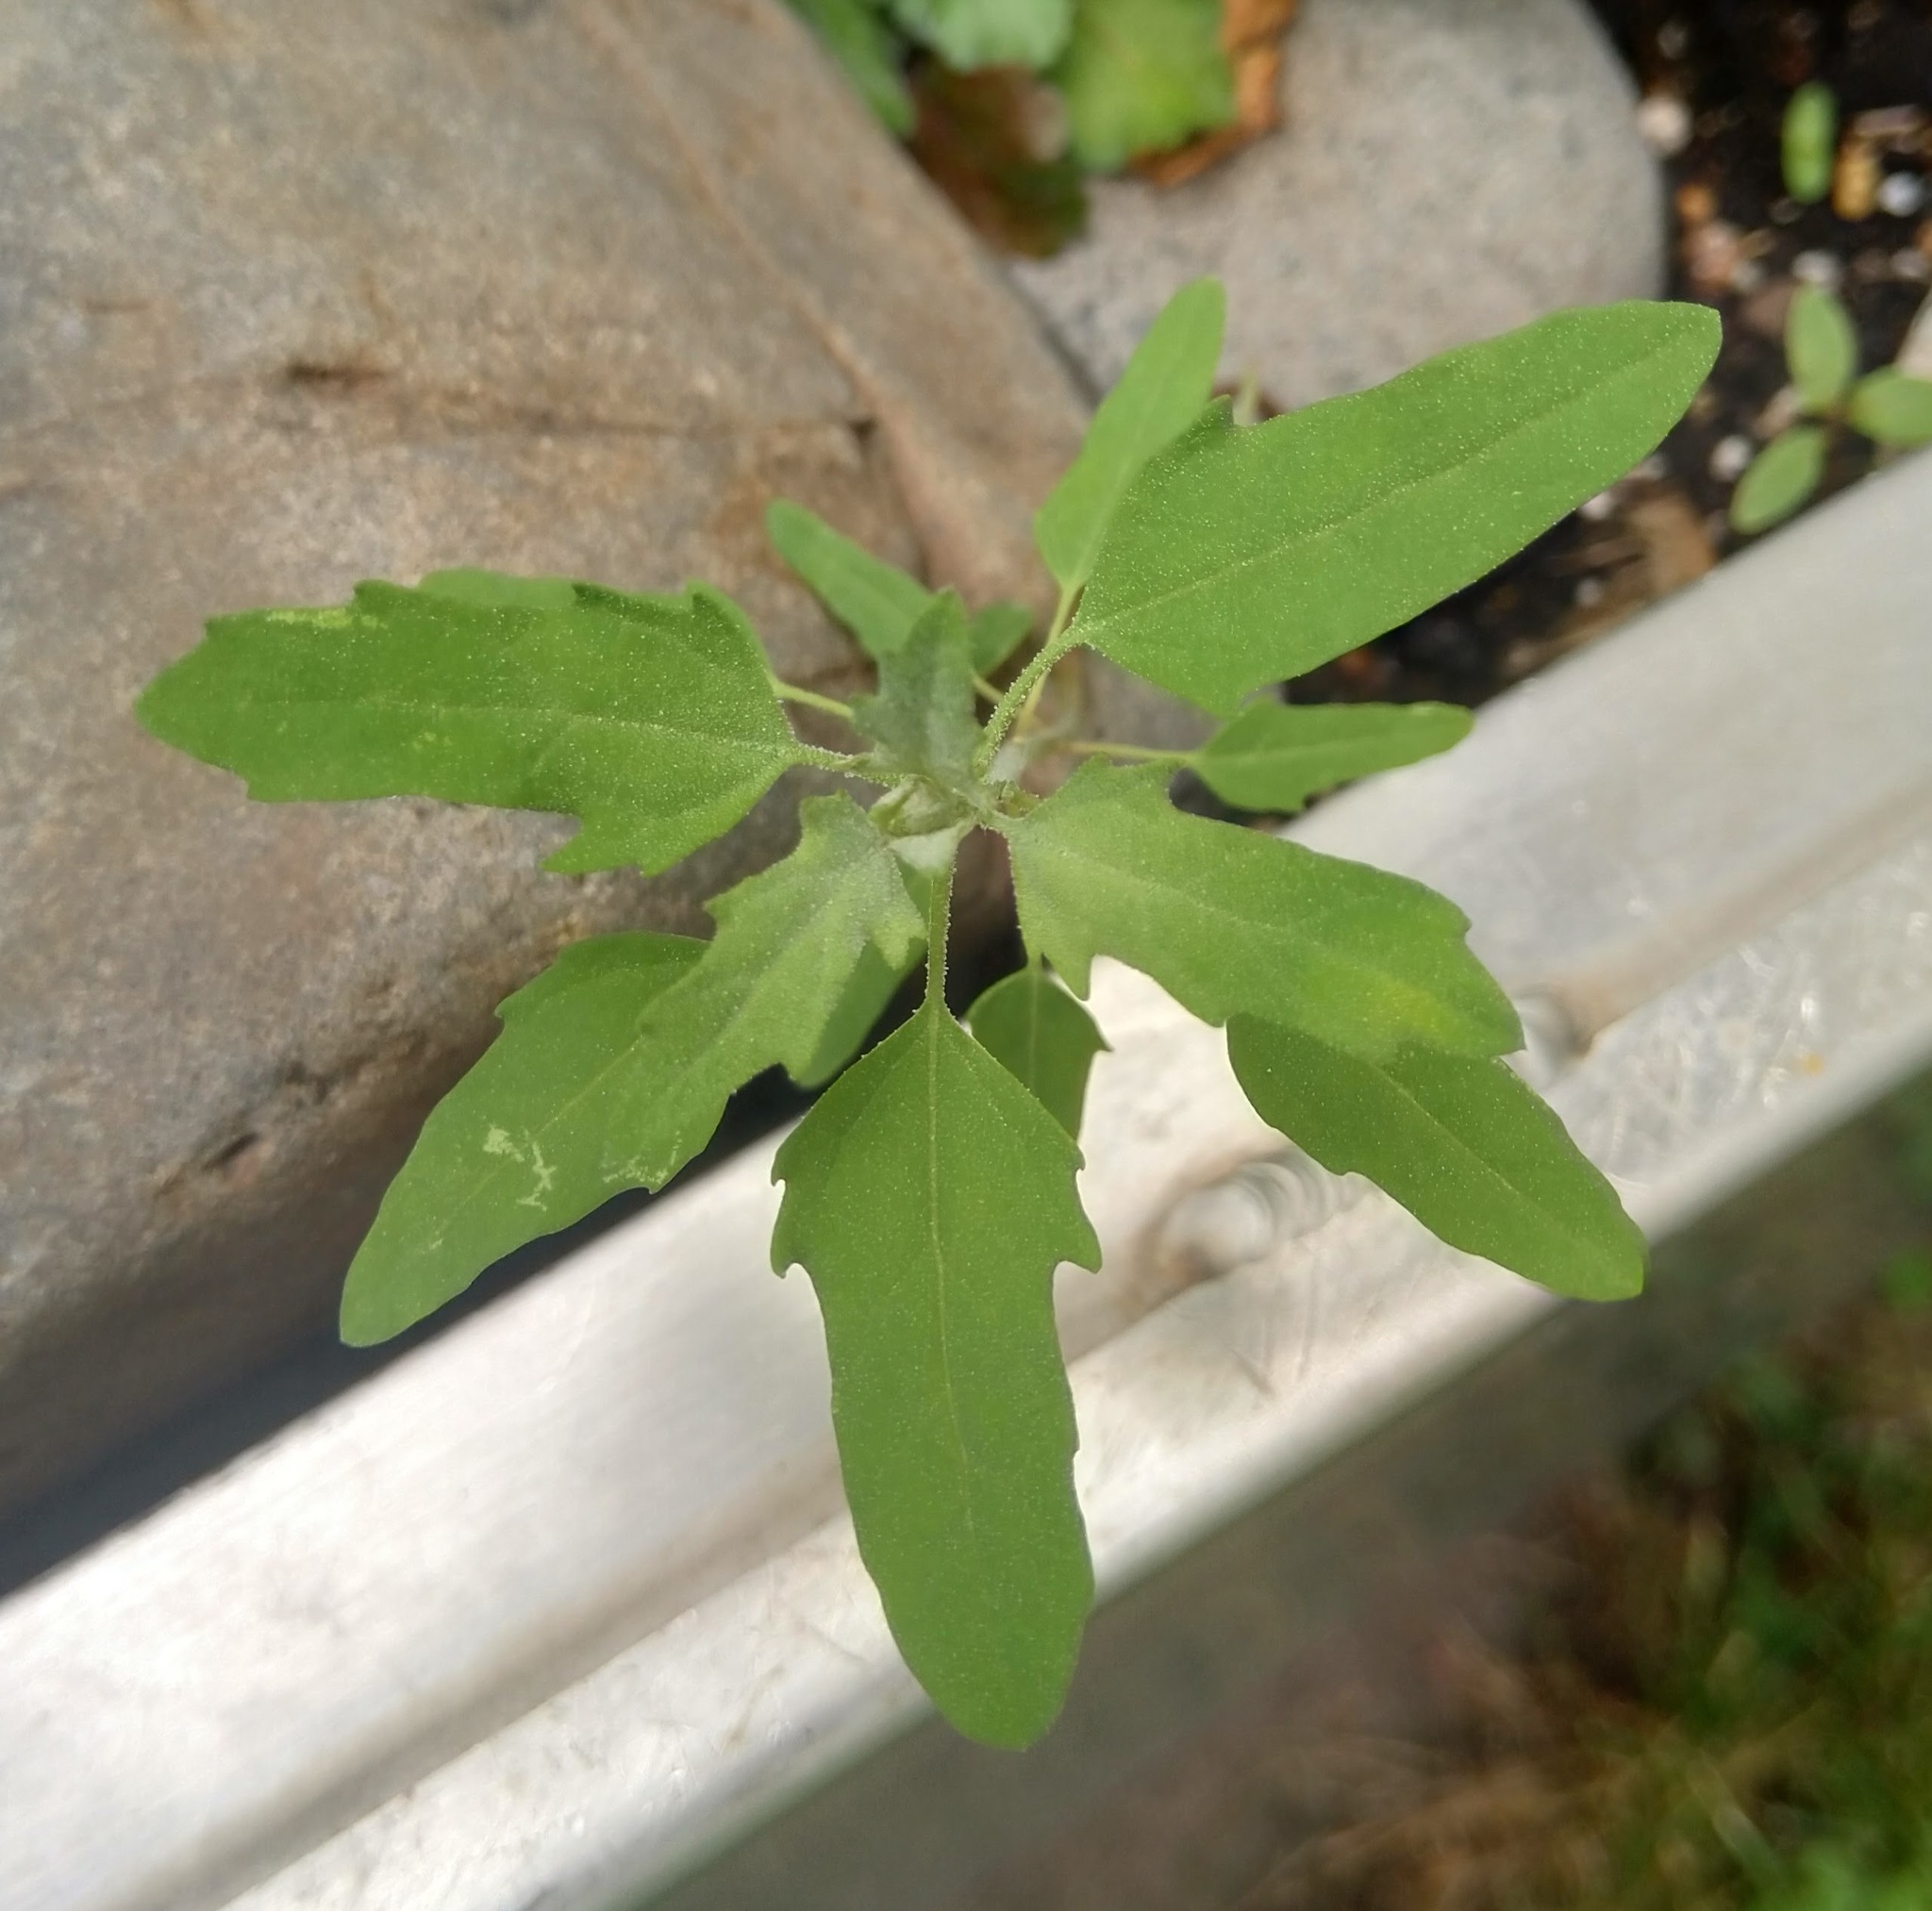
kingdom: Plantae
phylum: Tracheophyta
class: Magnoliopsida
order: Caryophyllales
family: Amaranthaceae
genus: Chenopodium
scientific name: Chenopodium album
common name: Fat-hen
